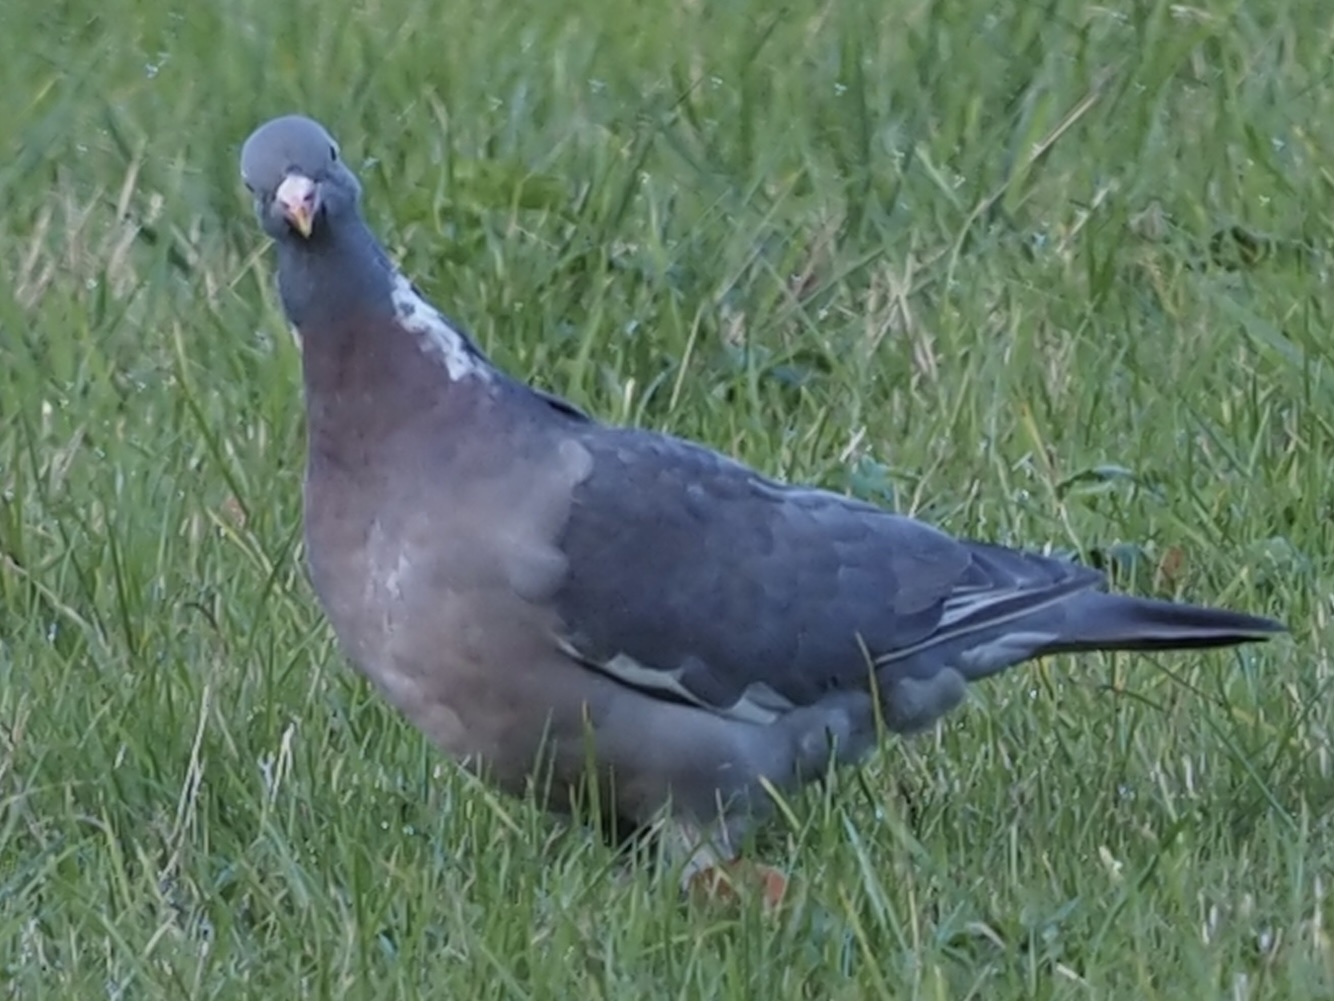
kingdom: Animalia
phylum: Chordata
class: Aves
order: Columbiformes
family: Columbidae
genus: Columba
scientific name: Columba palumbus
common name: Common wood pigeon
